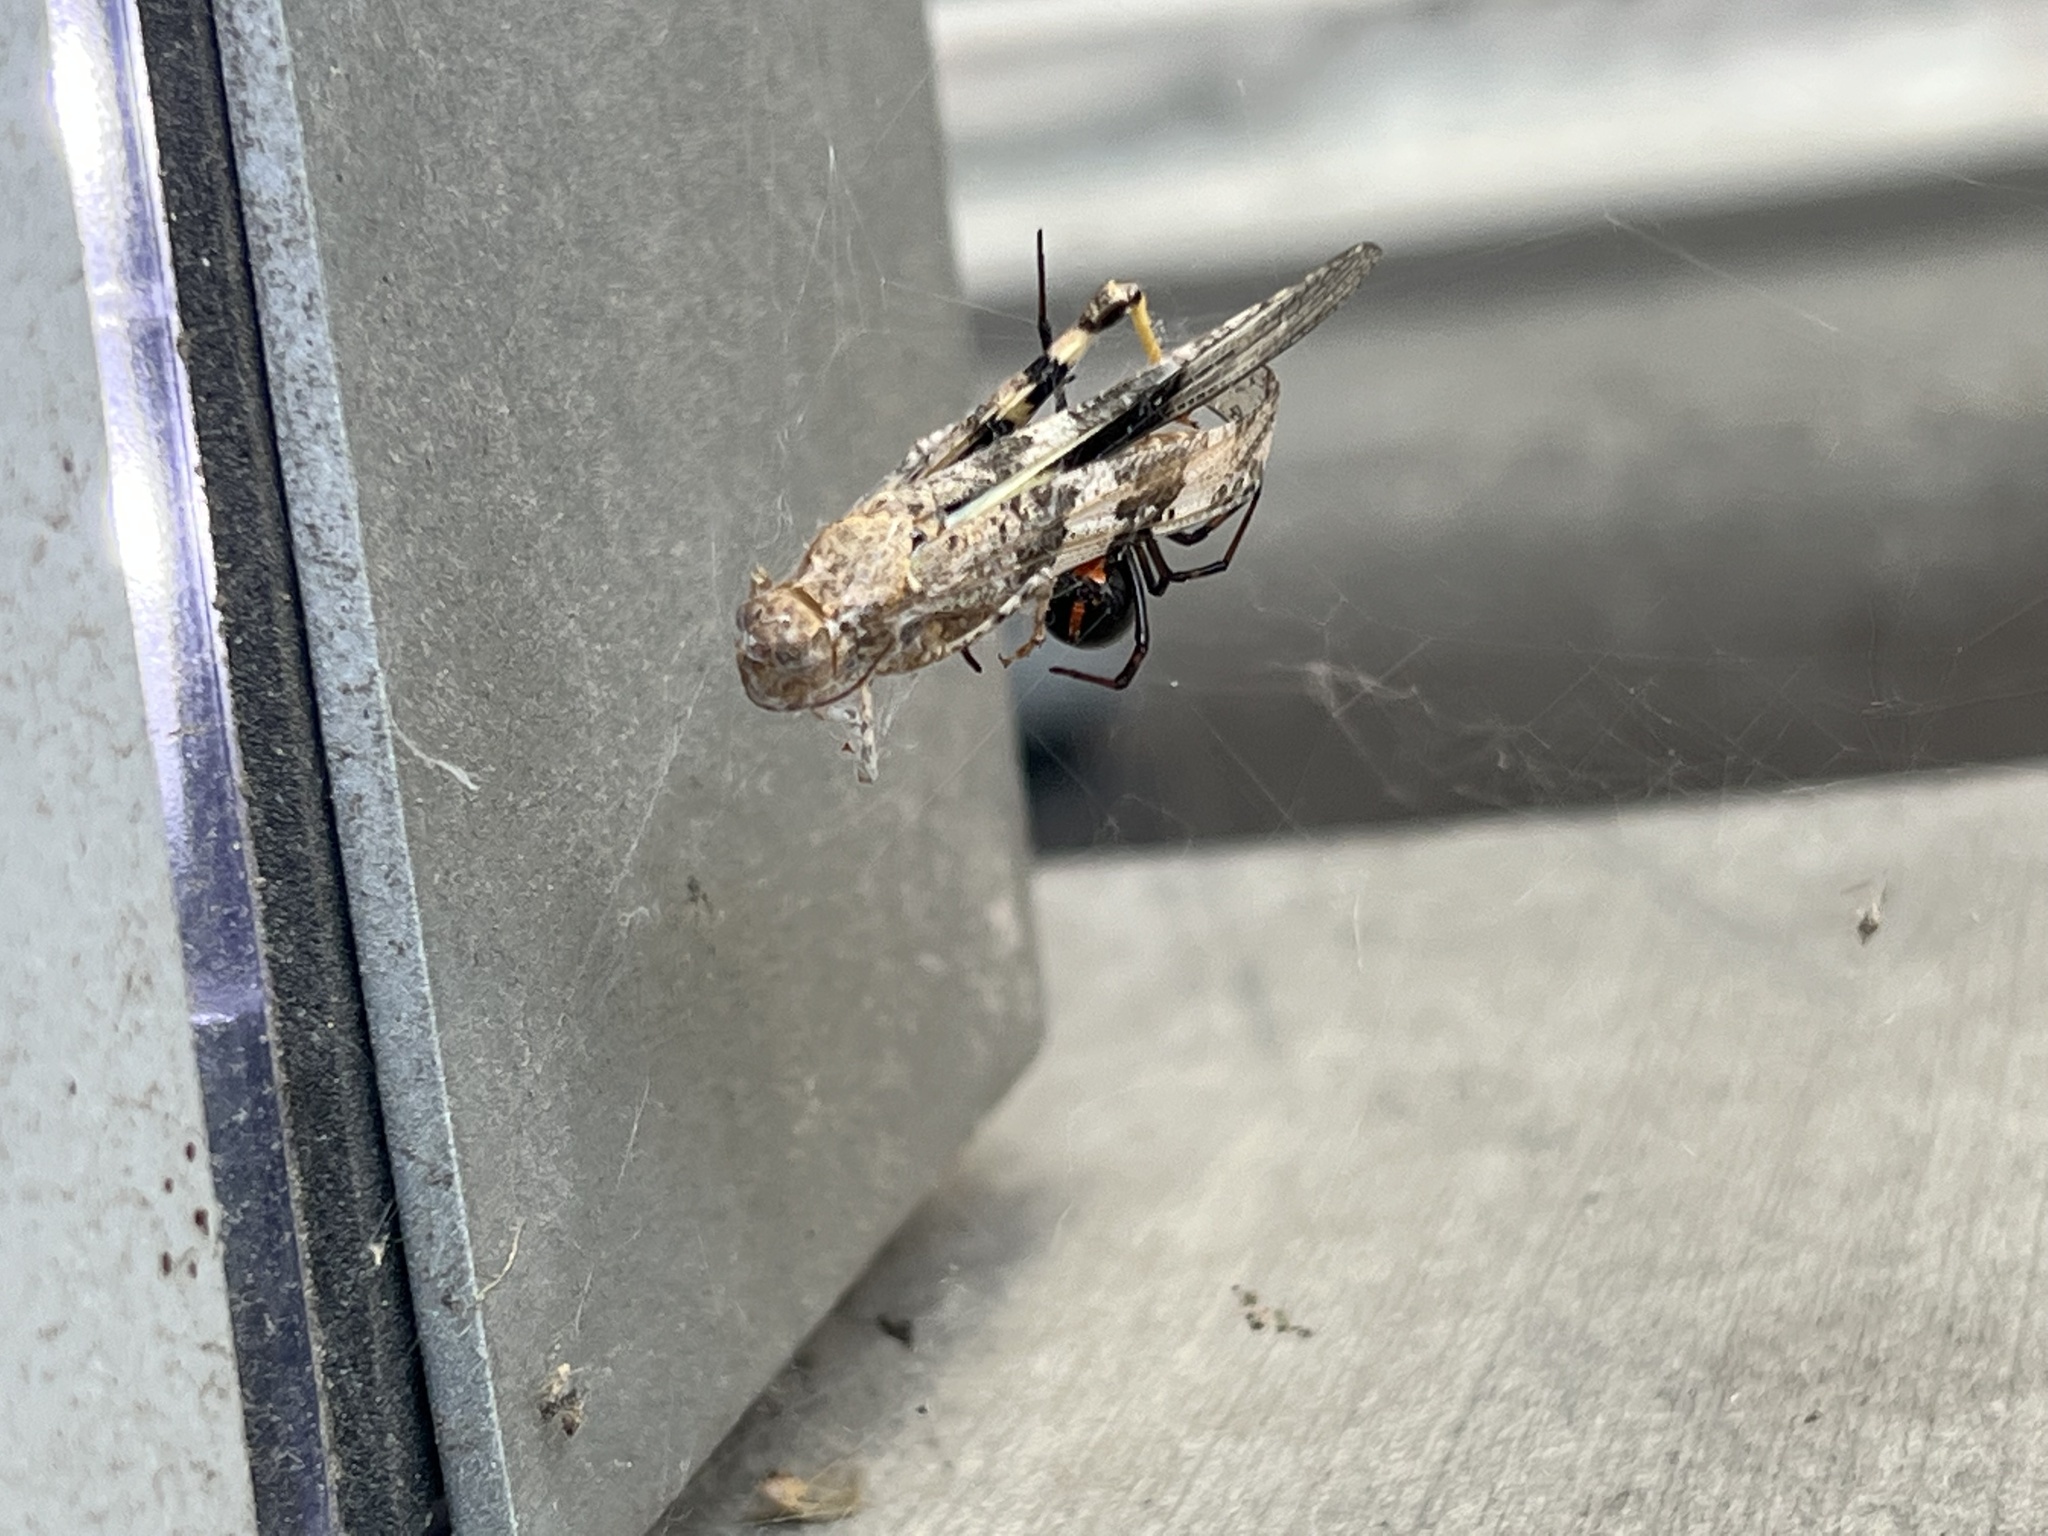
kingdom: Animalia
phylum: Arthropoda
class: Arachnida
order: Araneae
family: Theridiidae
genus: Latrodectus
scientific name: Latrodectus hesperus
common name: Western black widow
